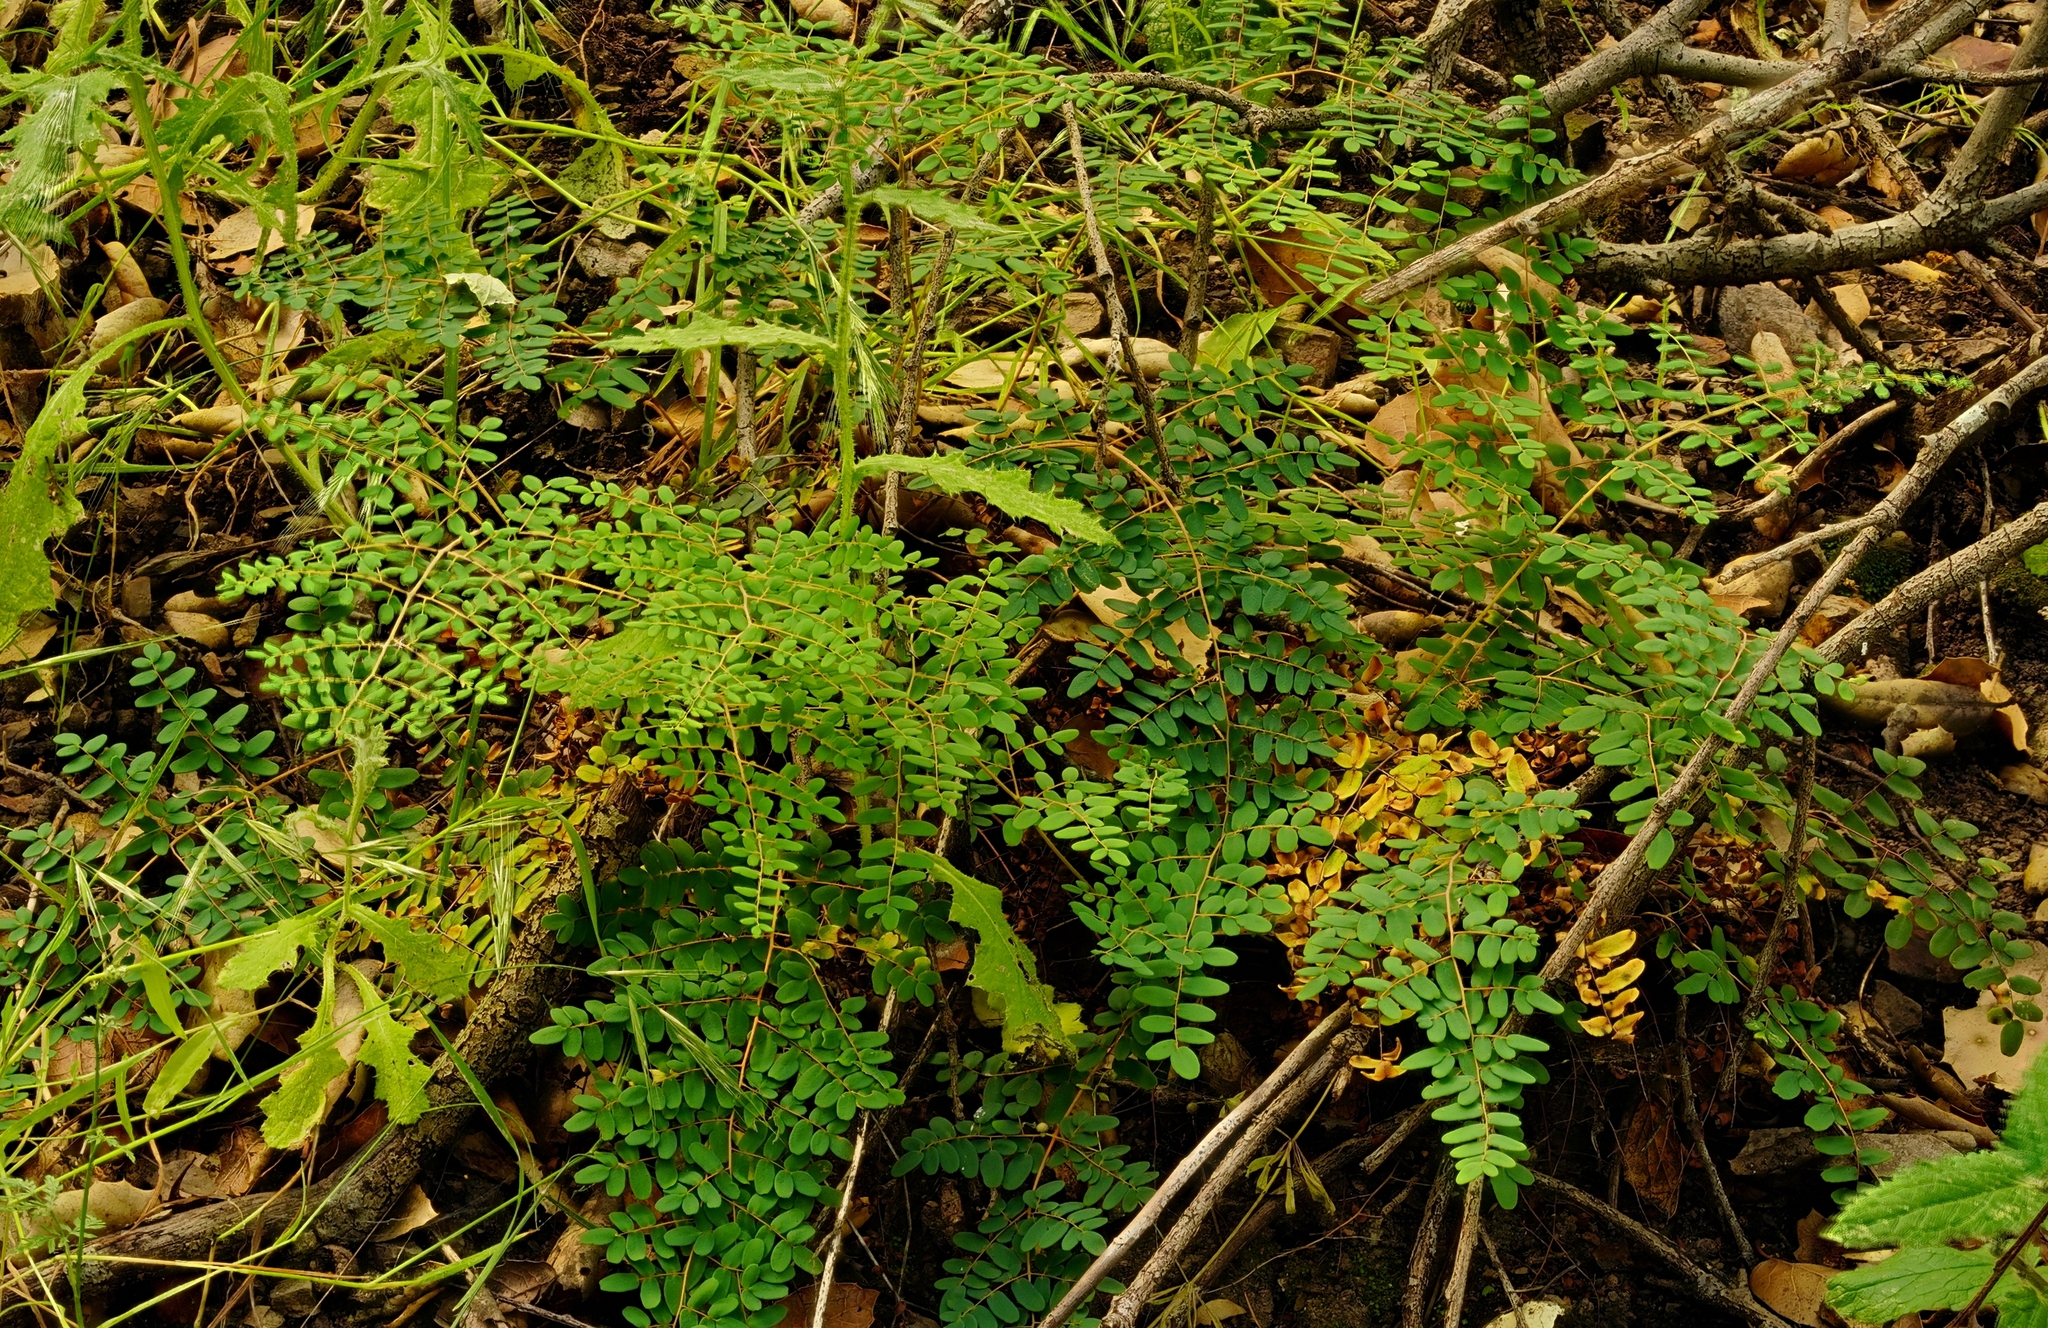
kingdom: Plantae
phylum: Tracheophyta
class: Polypodiopsida
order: Polypodiales
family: Pteridaceae
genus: Pellaea
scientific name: Pellaea andromedifolia
